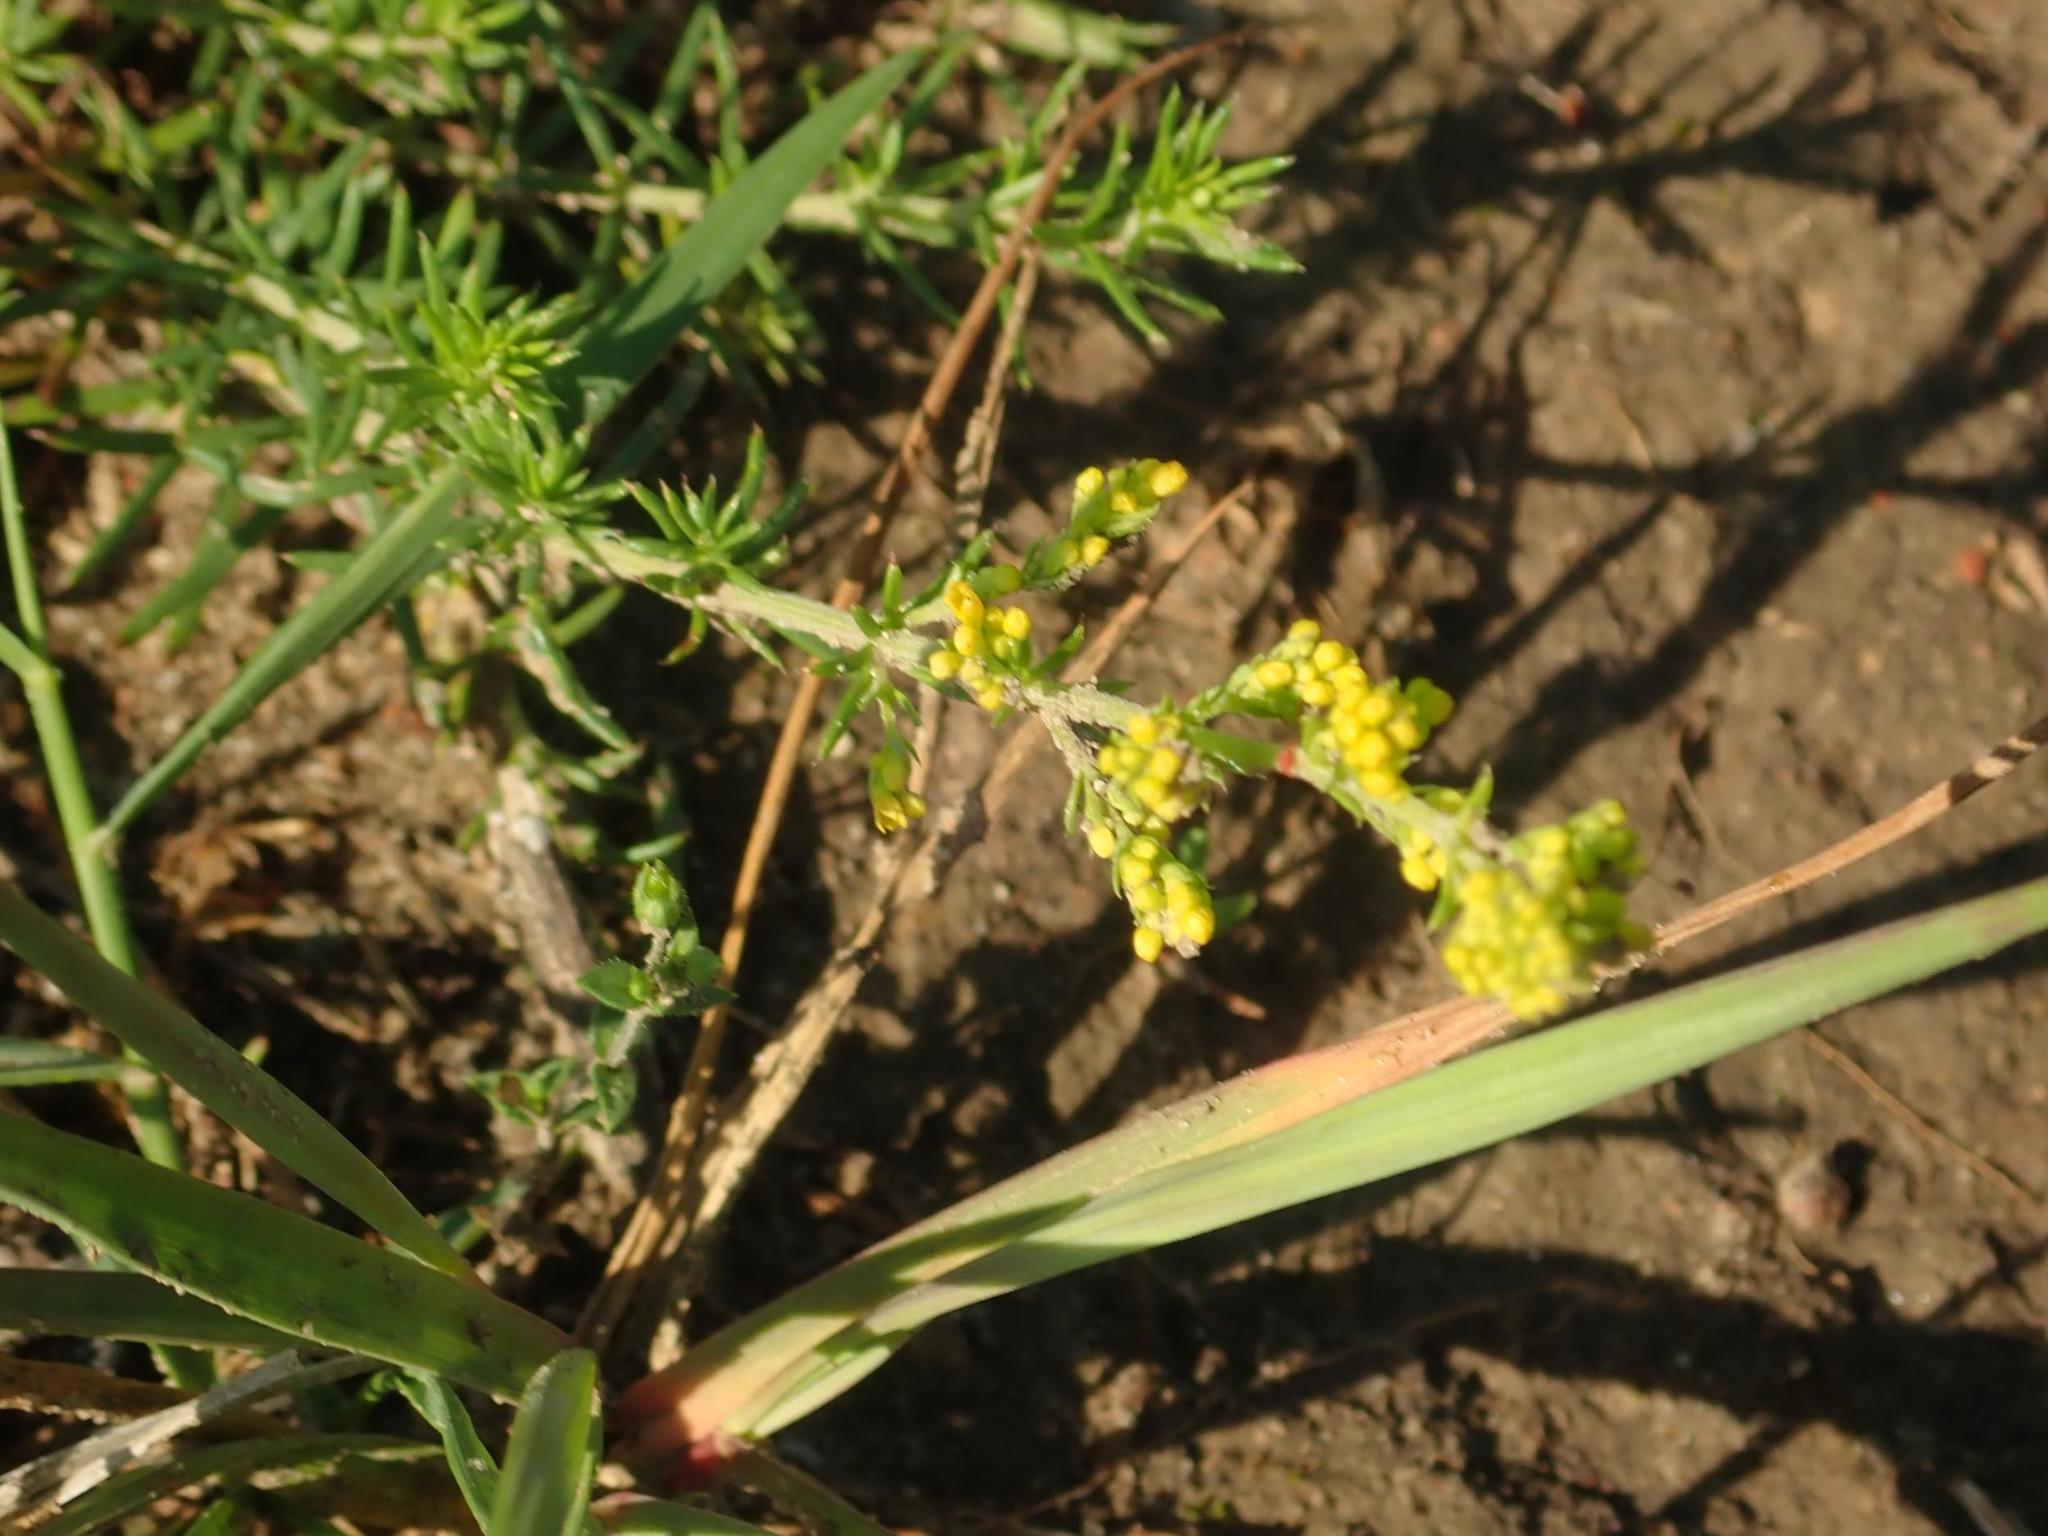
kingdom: Plantae
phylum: Tracheophyta
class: Magnoliopsida
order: Gentianales
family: Rubiaceae
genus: Galium
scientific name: Galium verum
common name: Lady's bedstraw
